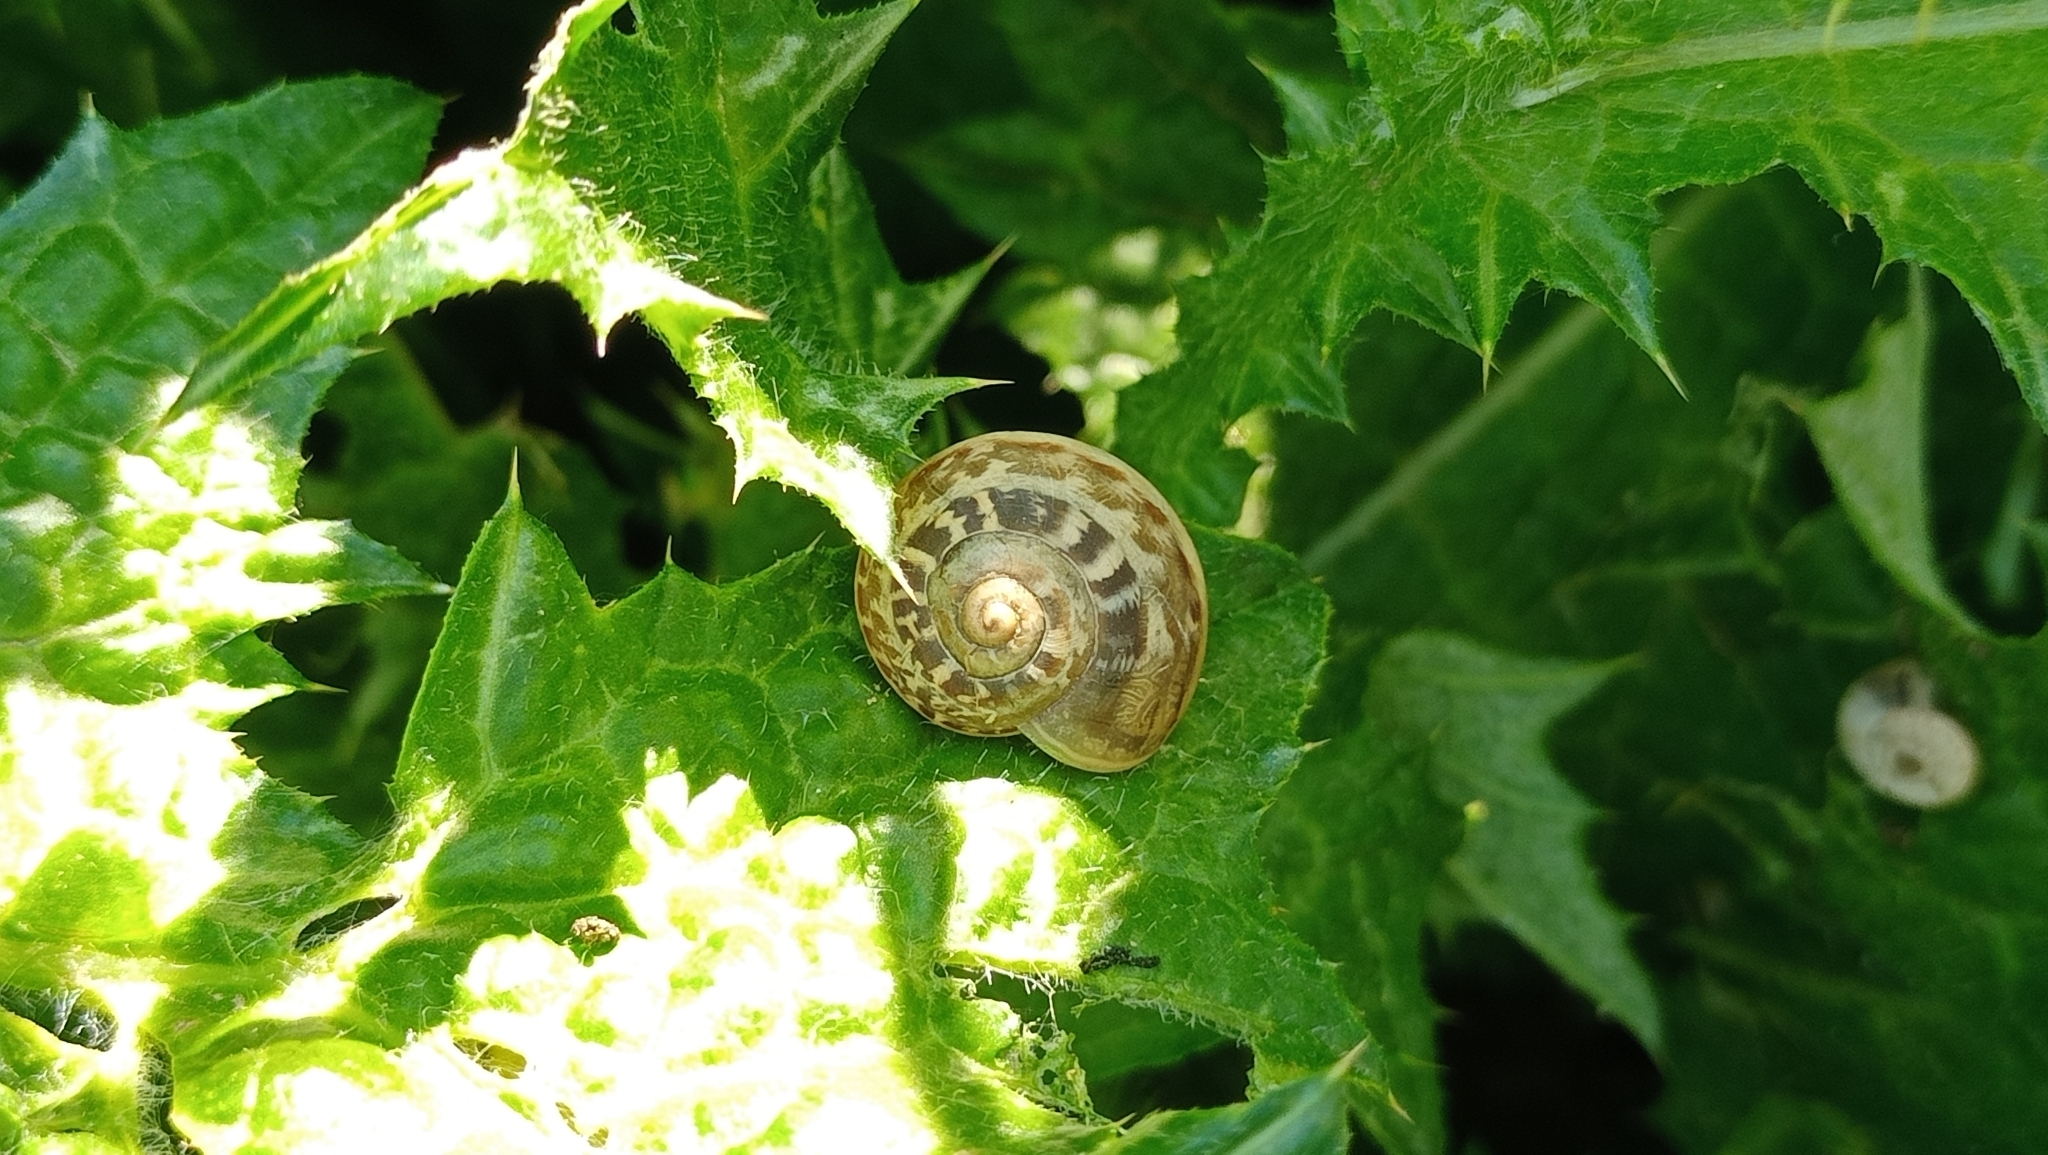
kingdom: Animalia
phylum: Mollusca
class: Gastropoda
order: Stylommatophora
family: Helicidae
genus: Eobania
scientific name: Eobania vermiculata
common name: Chocolateband snail
